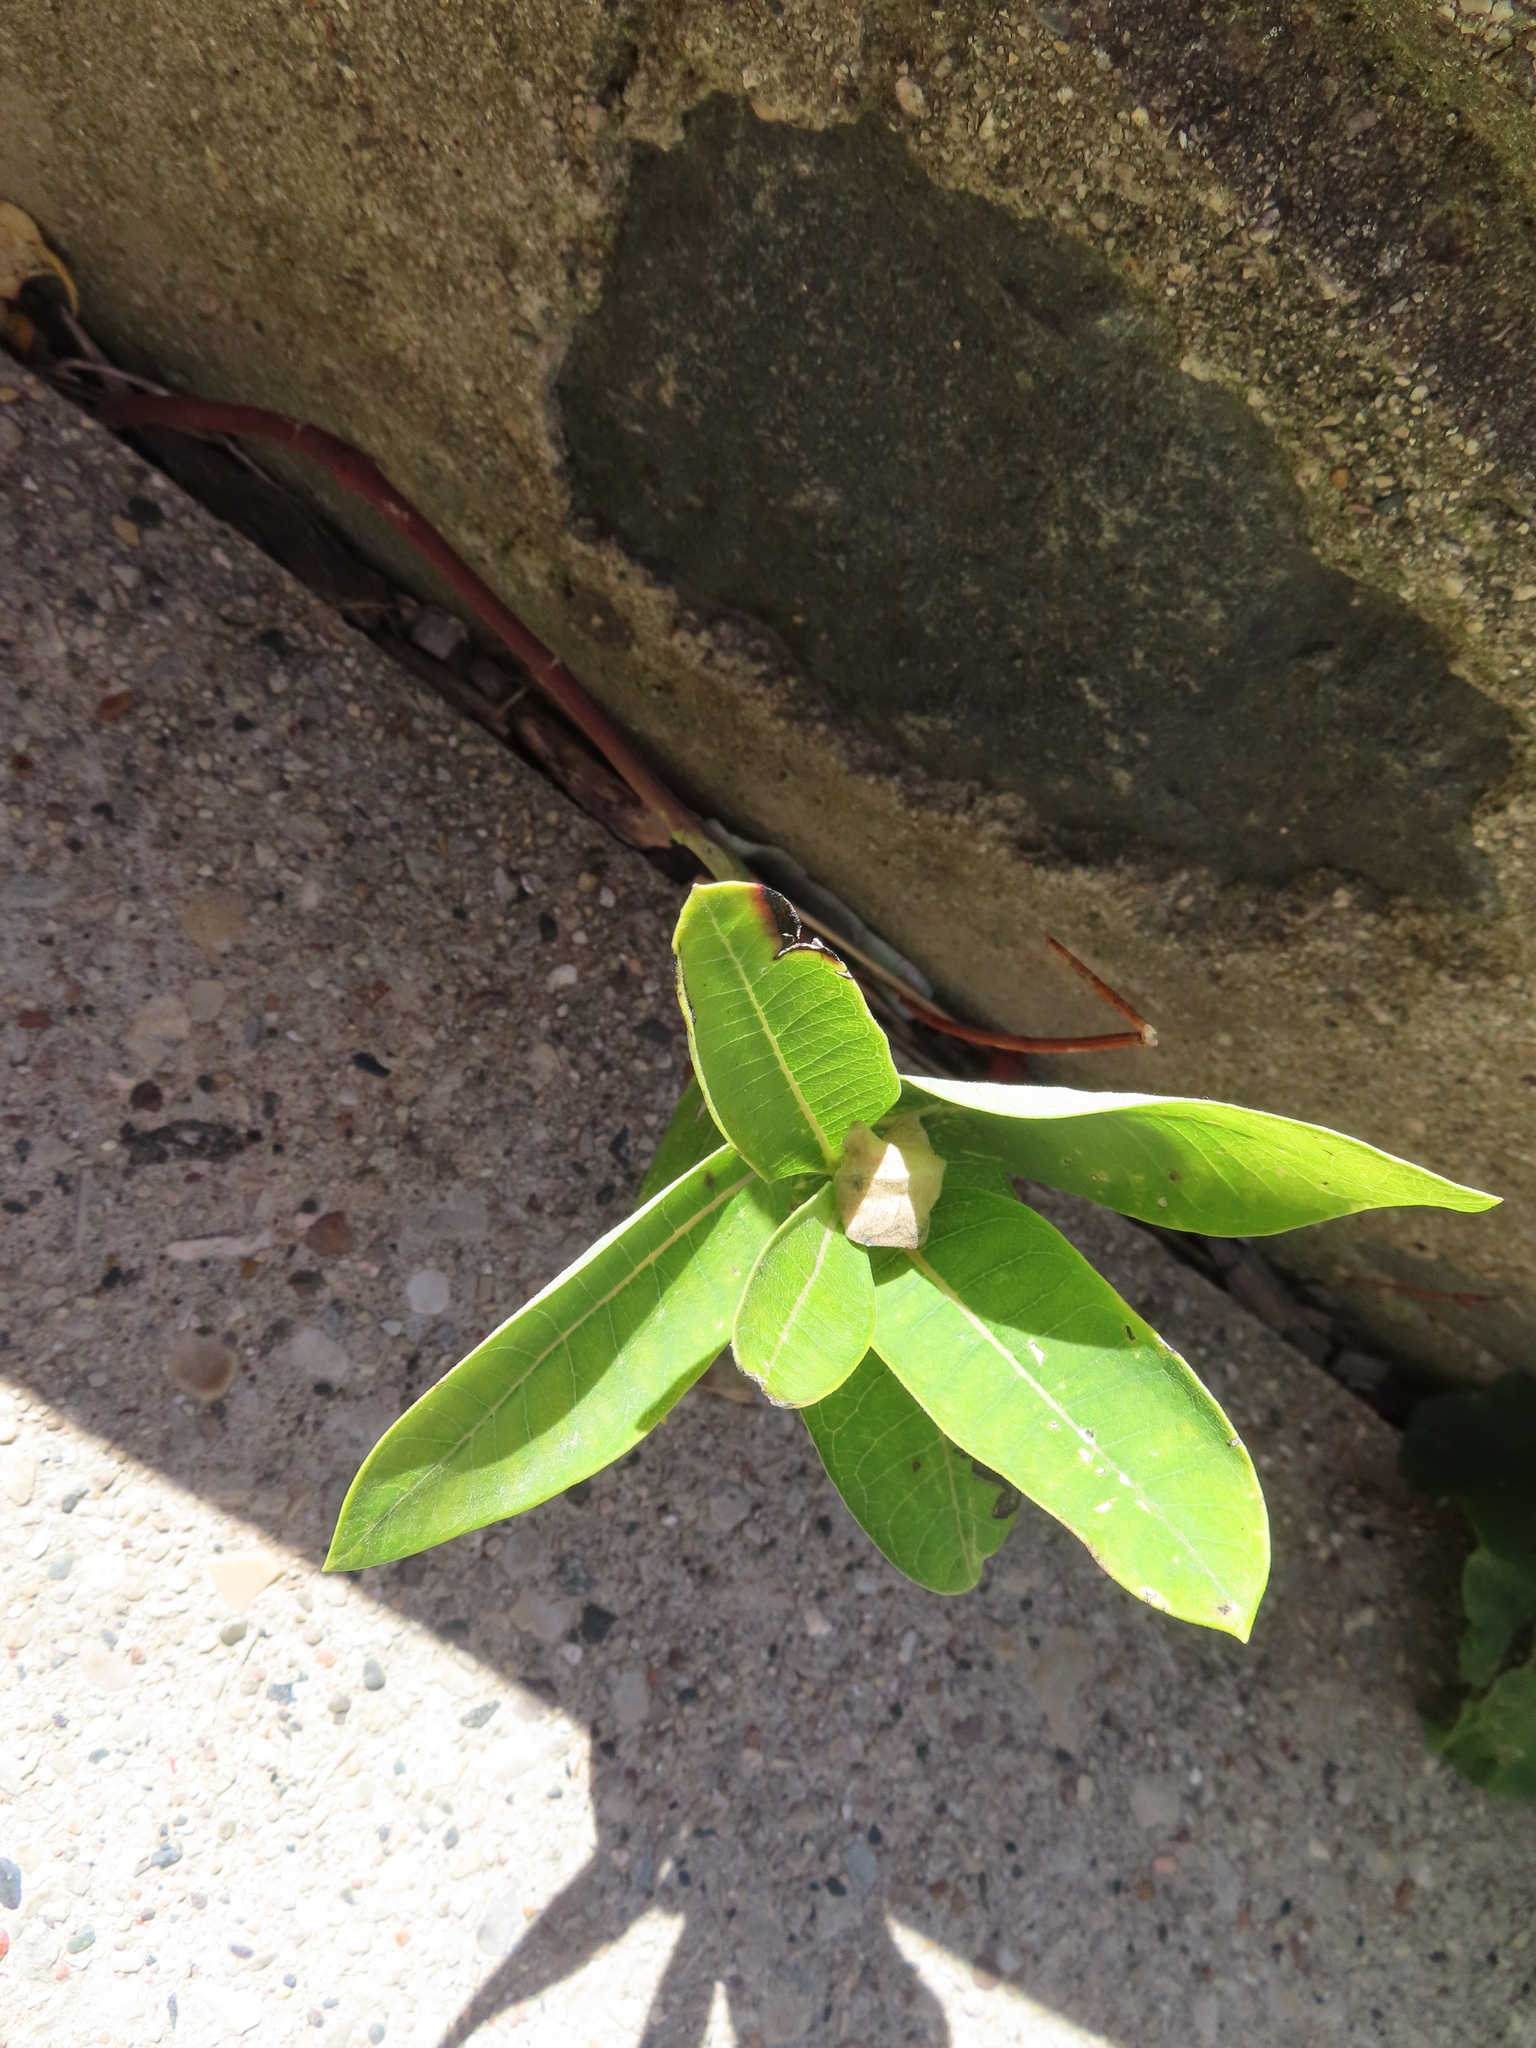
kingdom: Plantae
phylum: Tracheophyta
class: Magnoliopsida
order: Gentianales
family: Apocynaceae
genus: Asclepias
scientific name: Asclepias syriaca
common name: Common milkweed
